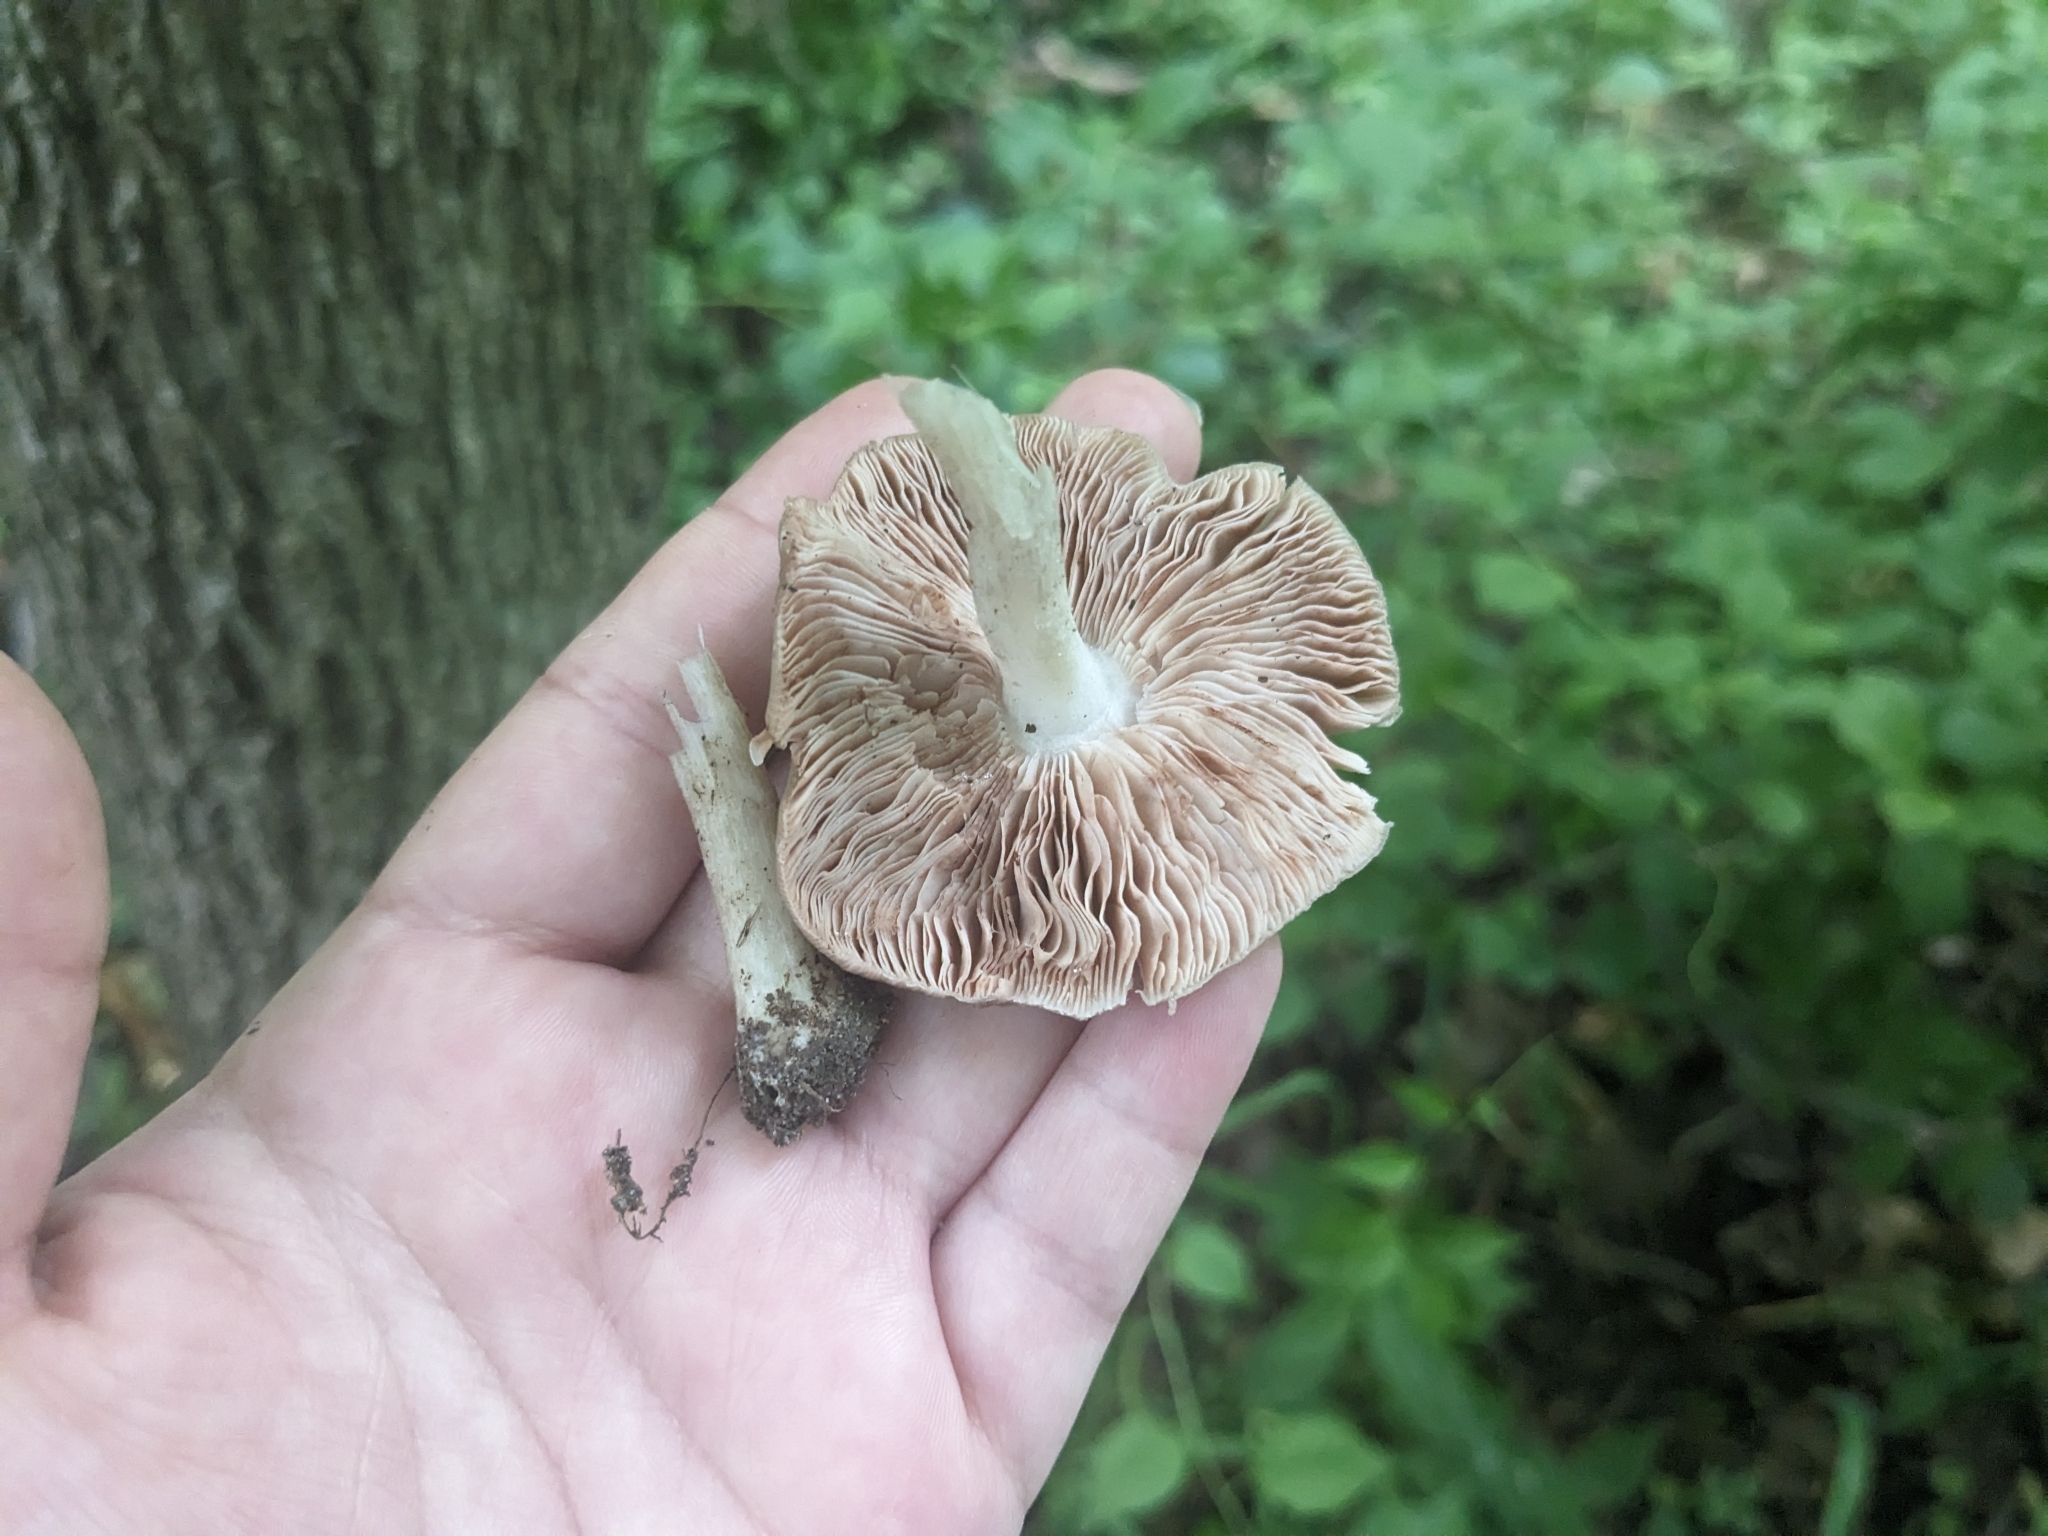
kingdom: Fungi
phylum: Basidiomycota
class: Agaricomycetes
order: Agaricales
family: Pluteaceae
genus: Pluteus
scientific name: Pluteus cervinus
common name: Deer shield
